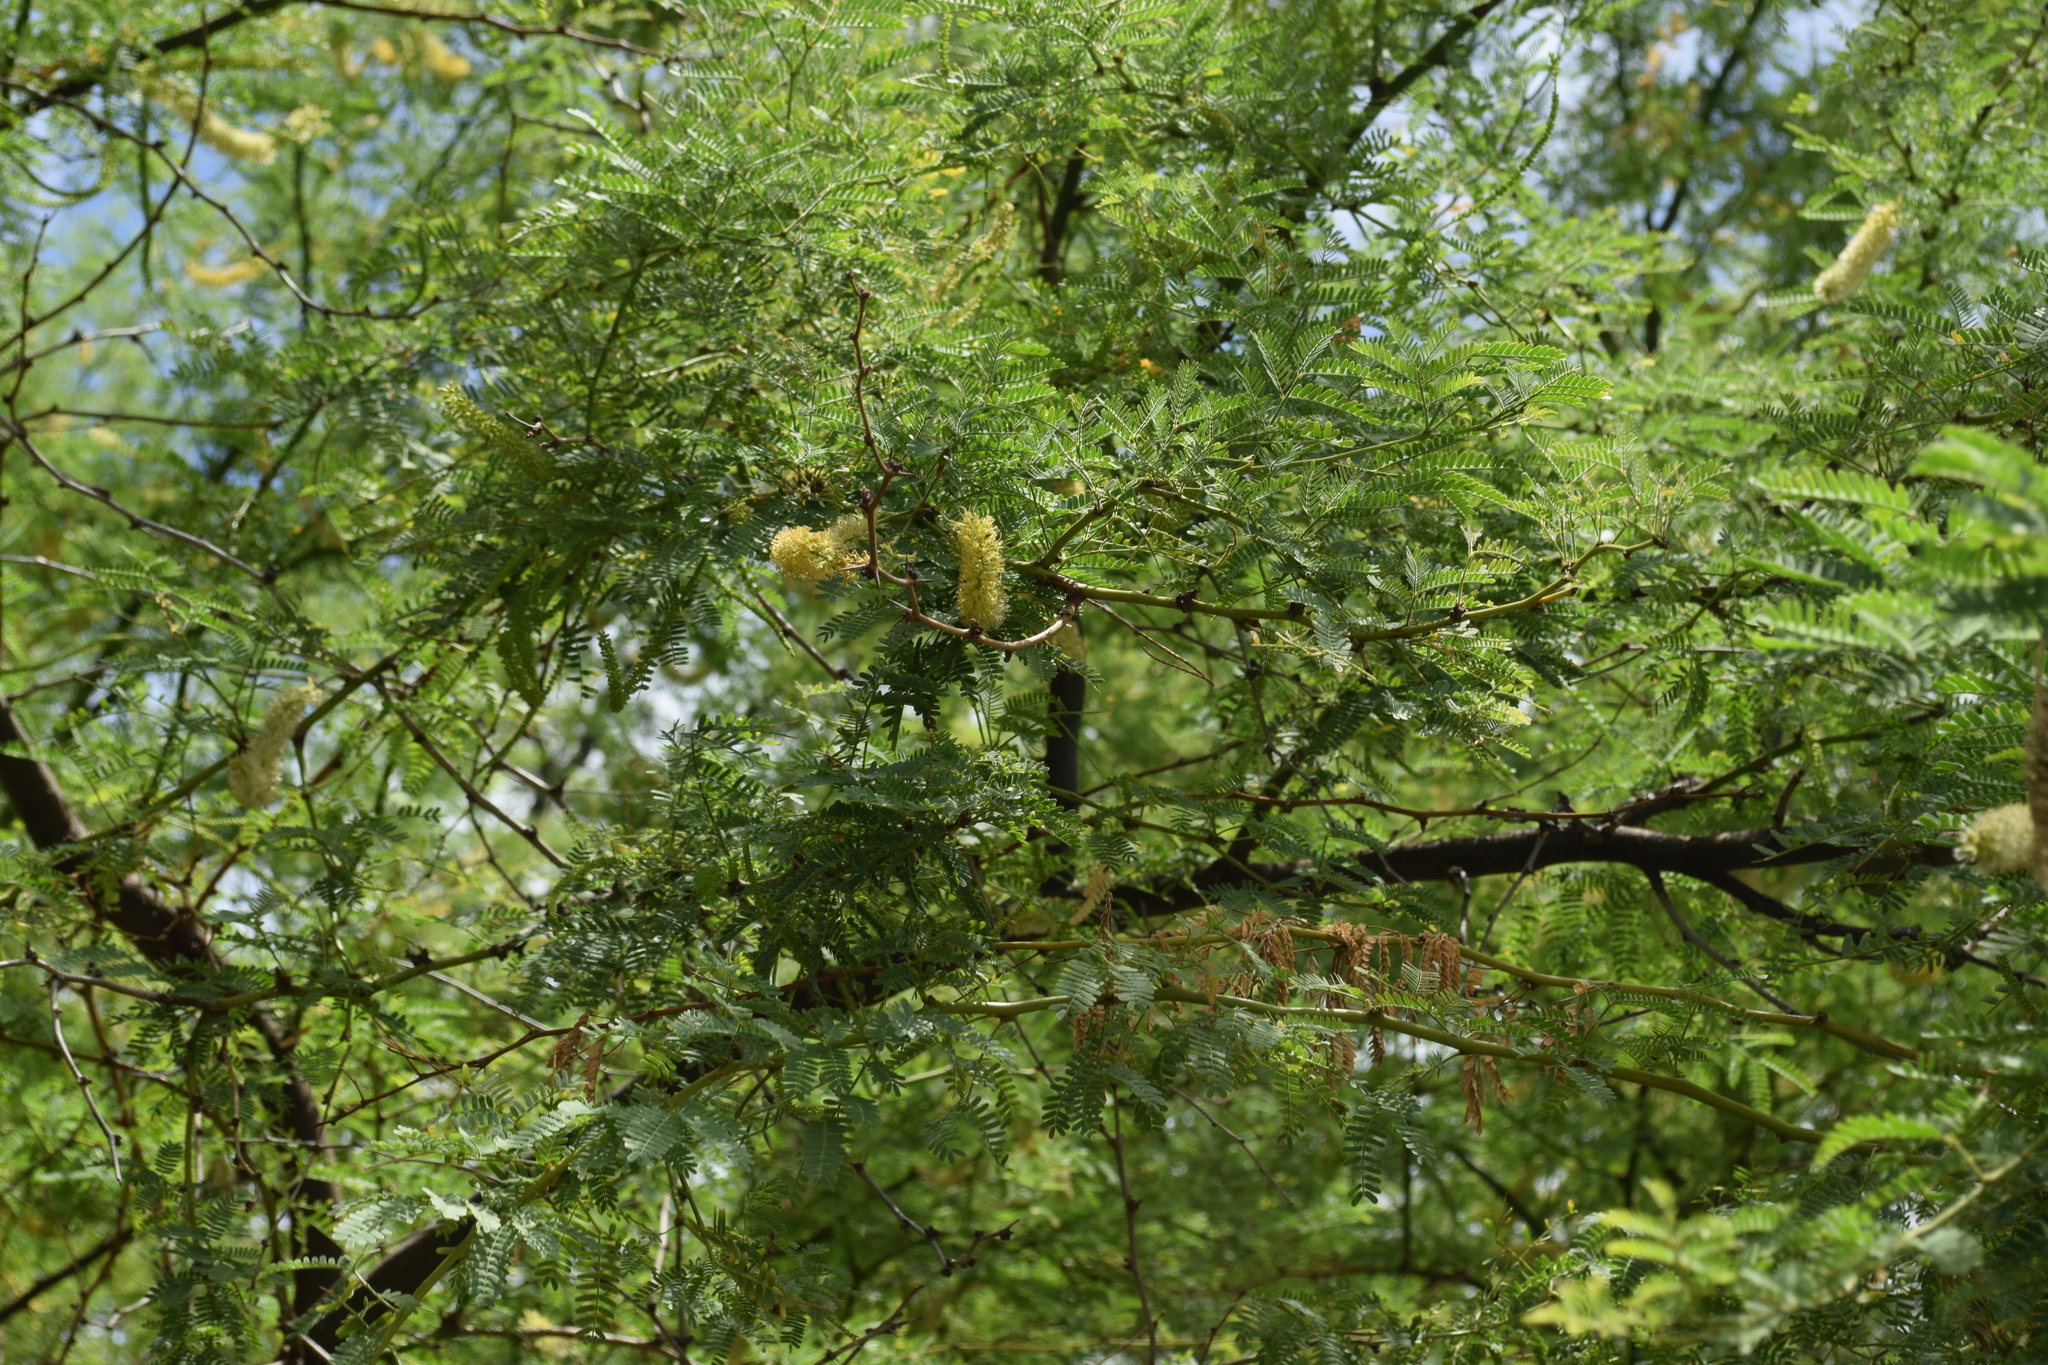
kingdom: Plantae
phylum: Tracheophyta
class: Magnoliopsida
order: Fabales
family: Fabaceae
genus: Prosopis
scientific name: Prosopis pallida
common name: Mesquite
